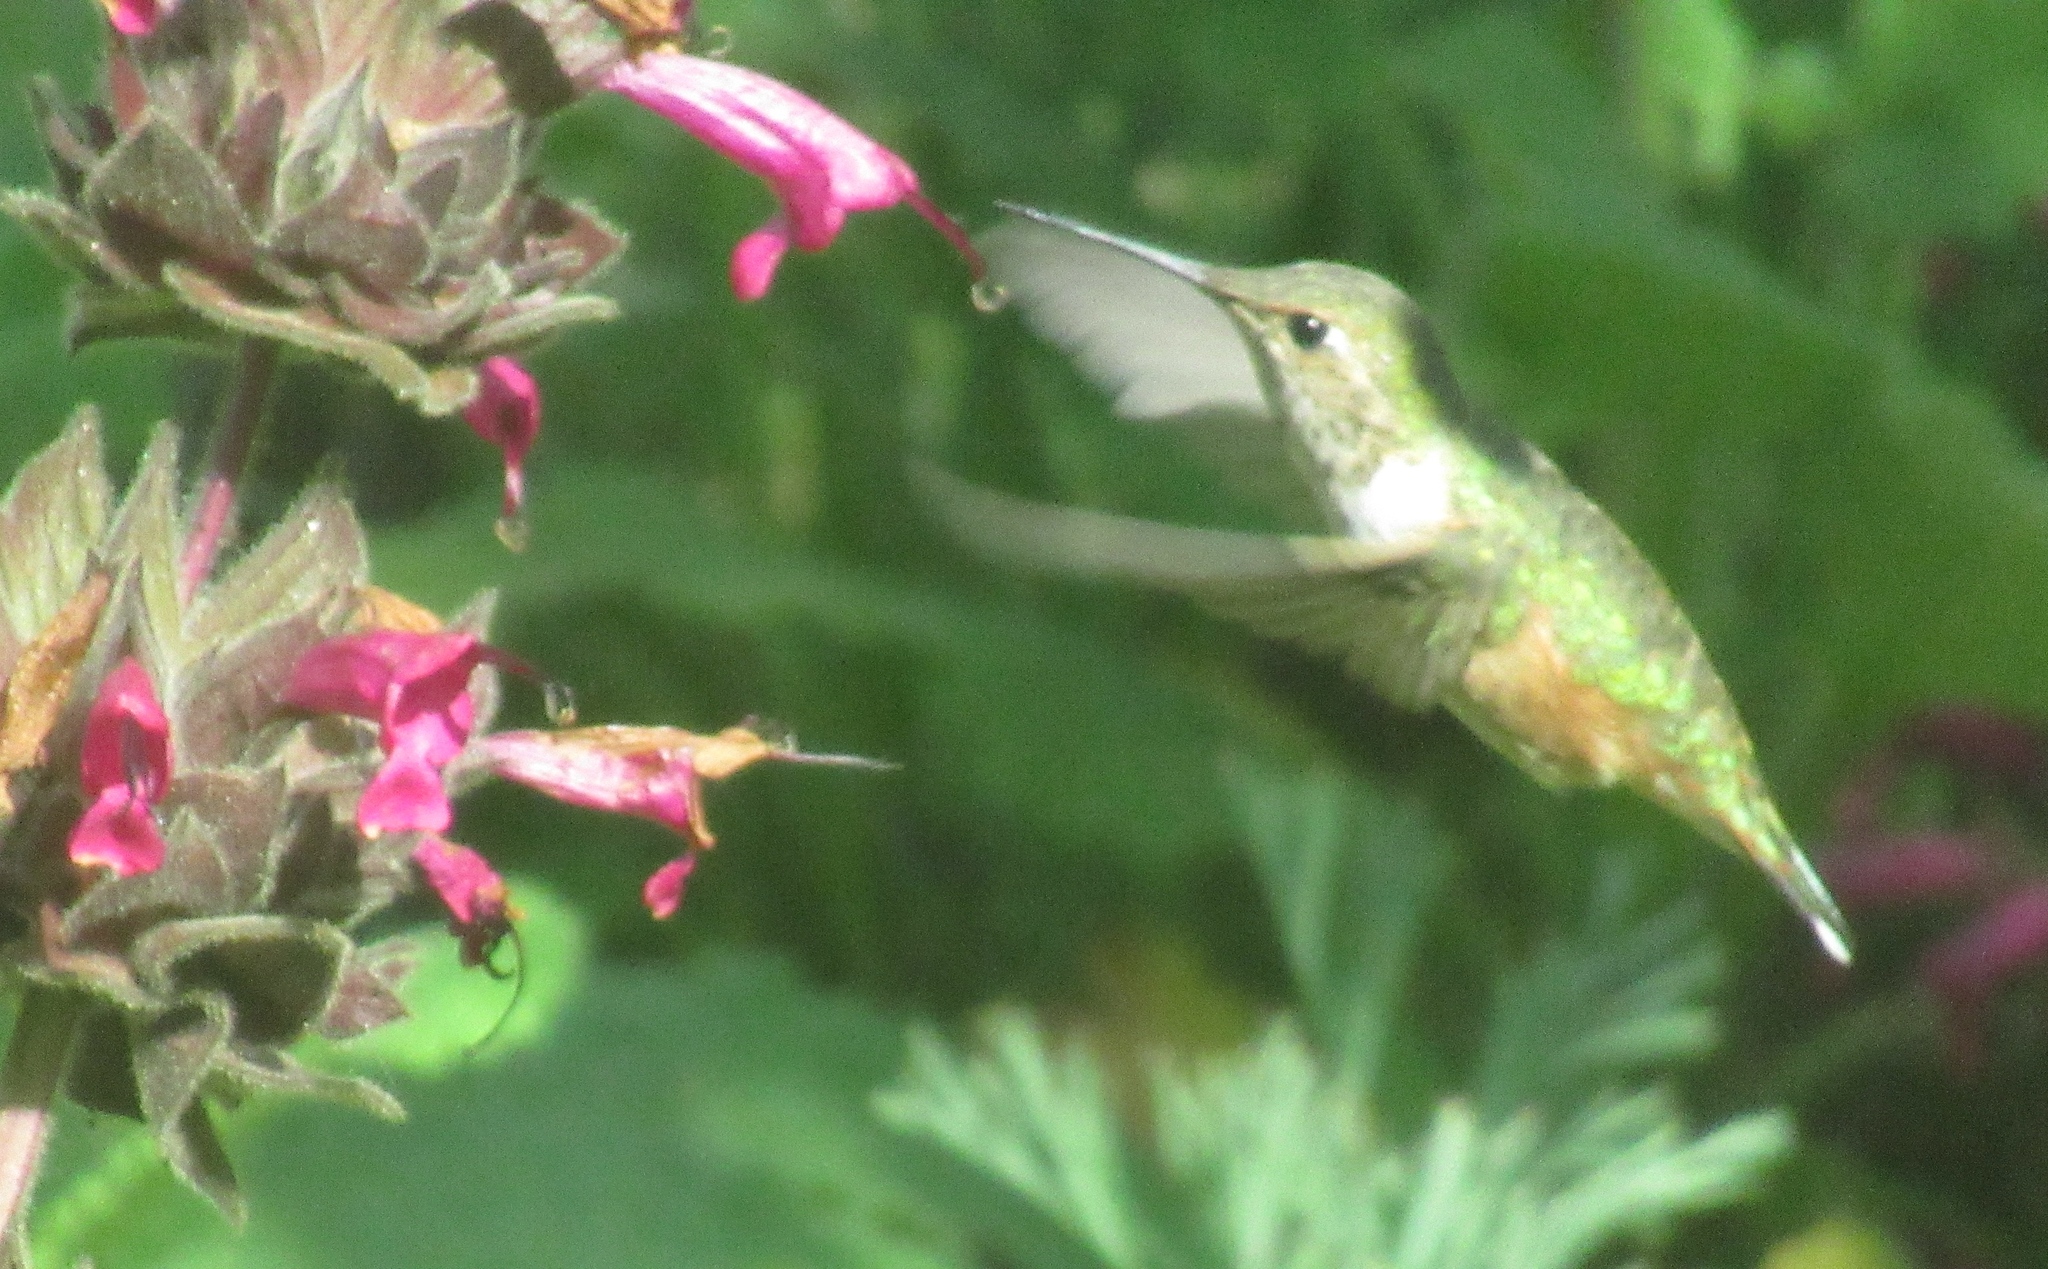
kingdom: Animalia
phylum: Chordata
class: Aves
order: Apodiformes
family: Trochilidae
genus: Calypte
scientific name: Calypte anna
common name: Anna's hummingbird
